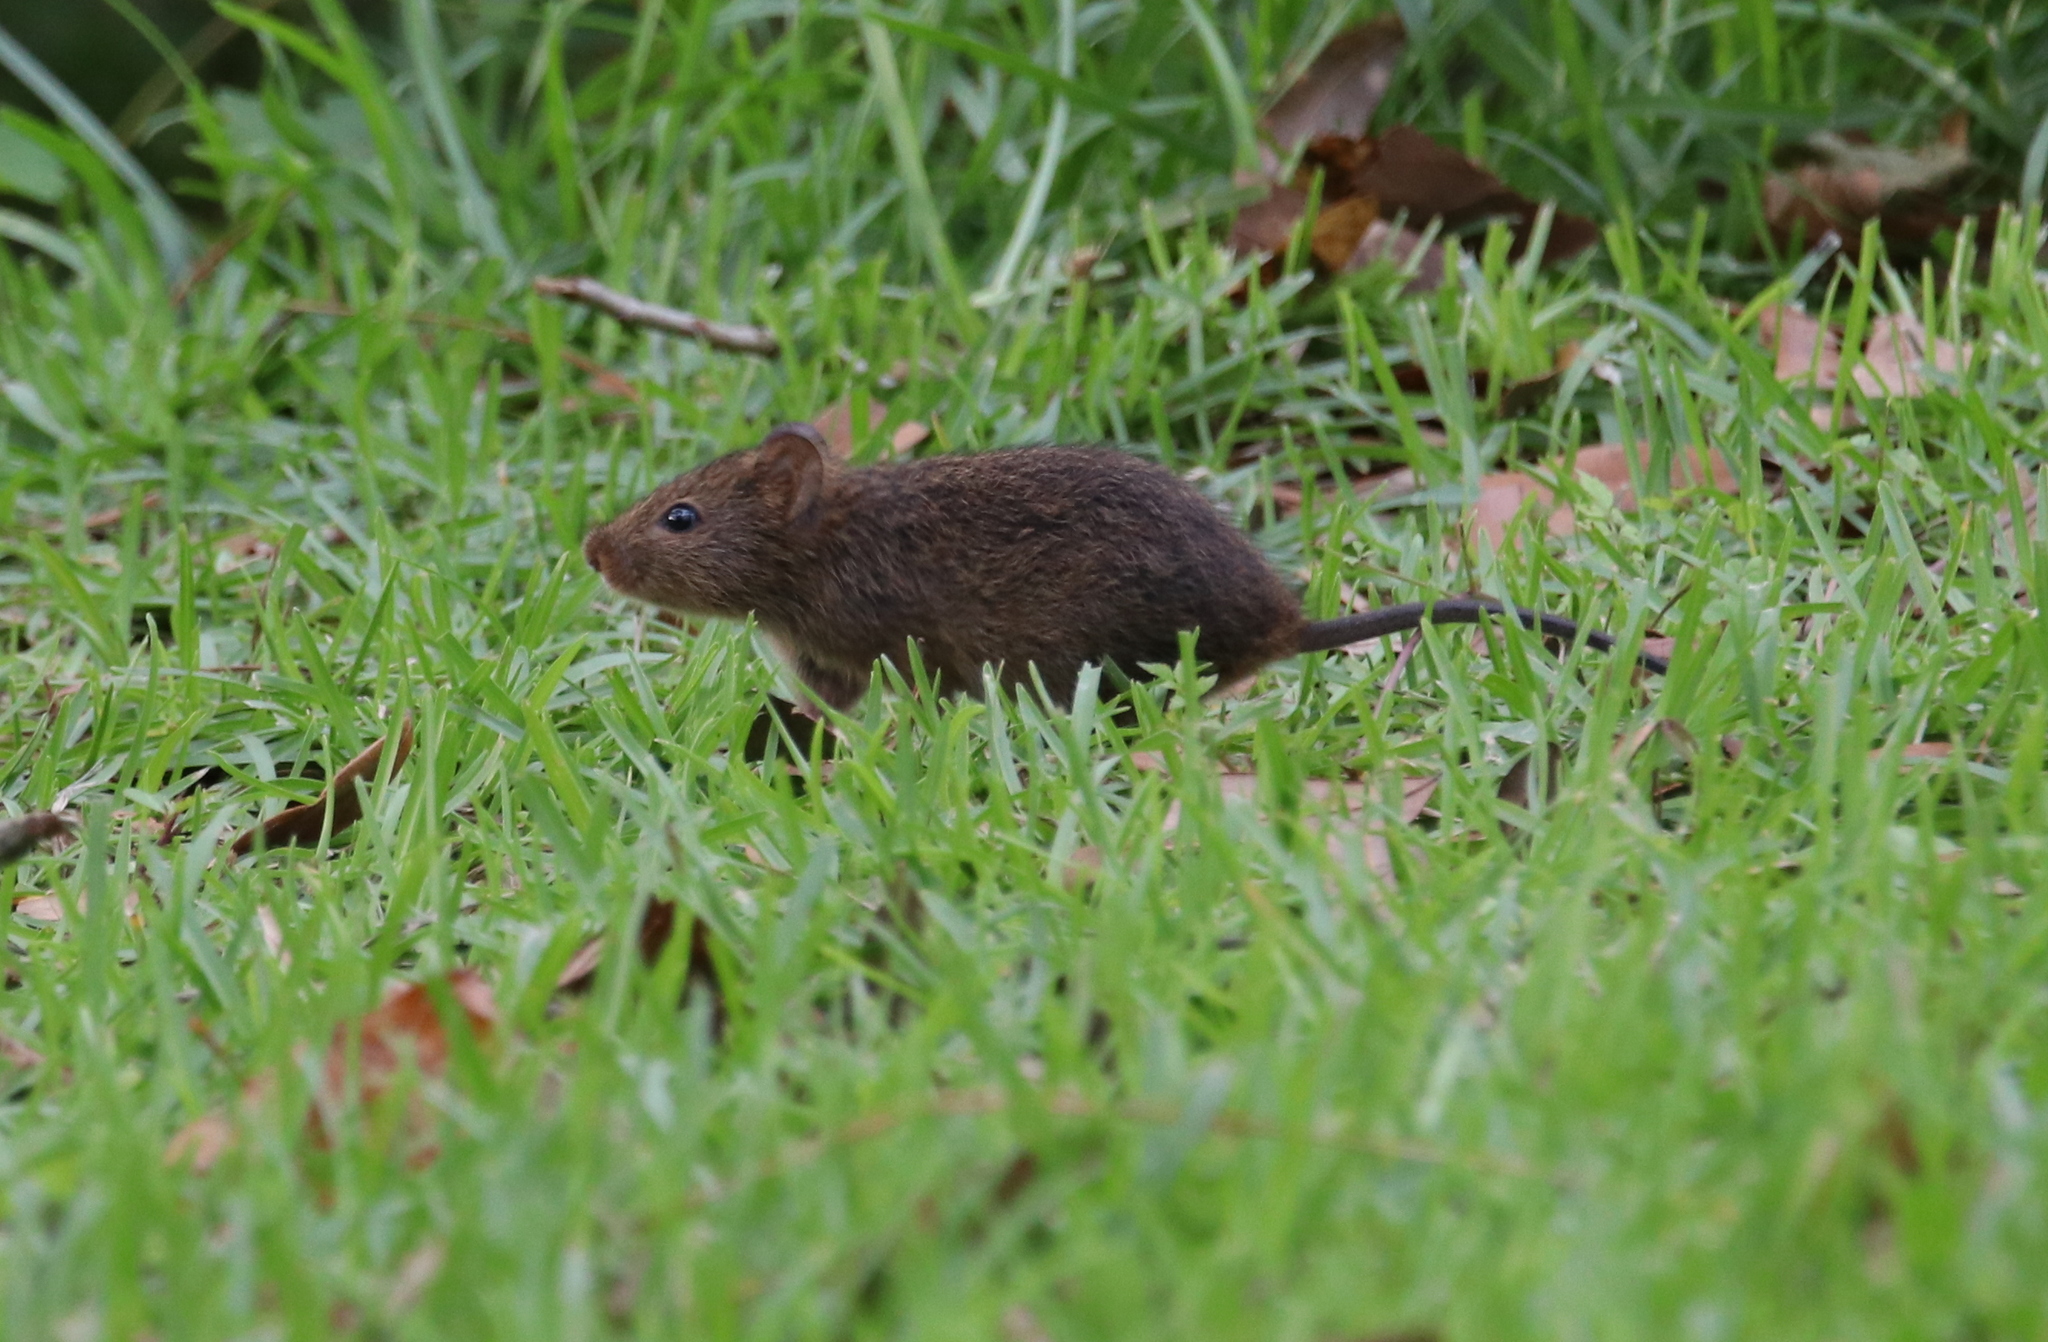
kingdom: Animalia
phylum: Chordata
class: Mammalia
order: Rodentia
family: Cricetidae
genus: Sigmodon
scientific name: Sigmodon hispidus
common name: Hispid cotton rat
